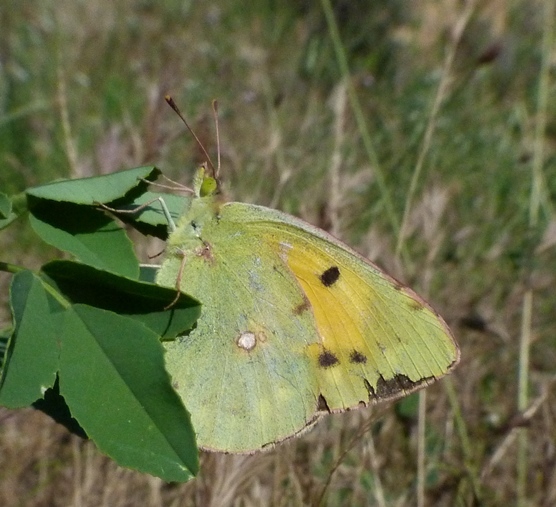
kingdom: Animalia
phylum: Arthropoda
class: Insecta
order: Lepidoptera
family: Pieridae
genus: Colias
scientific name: Colias croceus
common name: Clouded yellow
